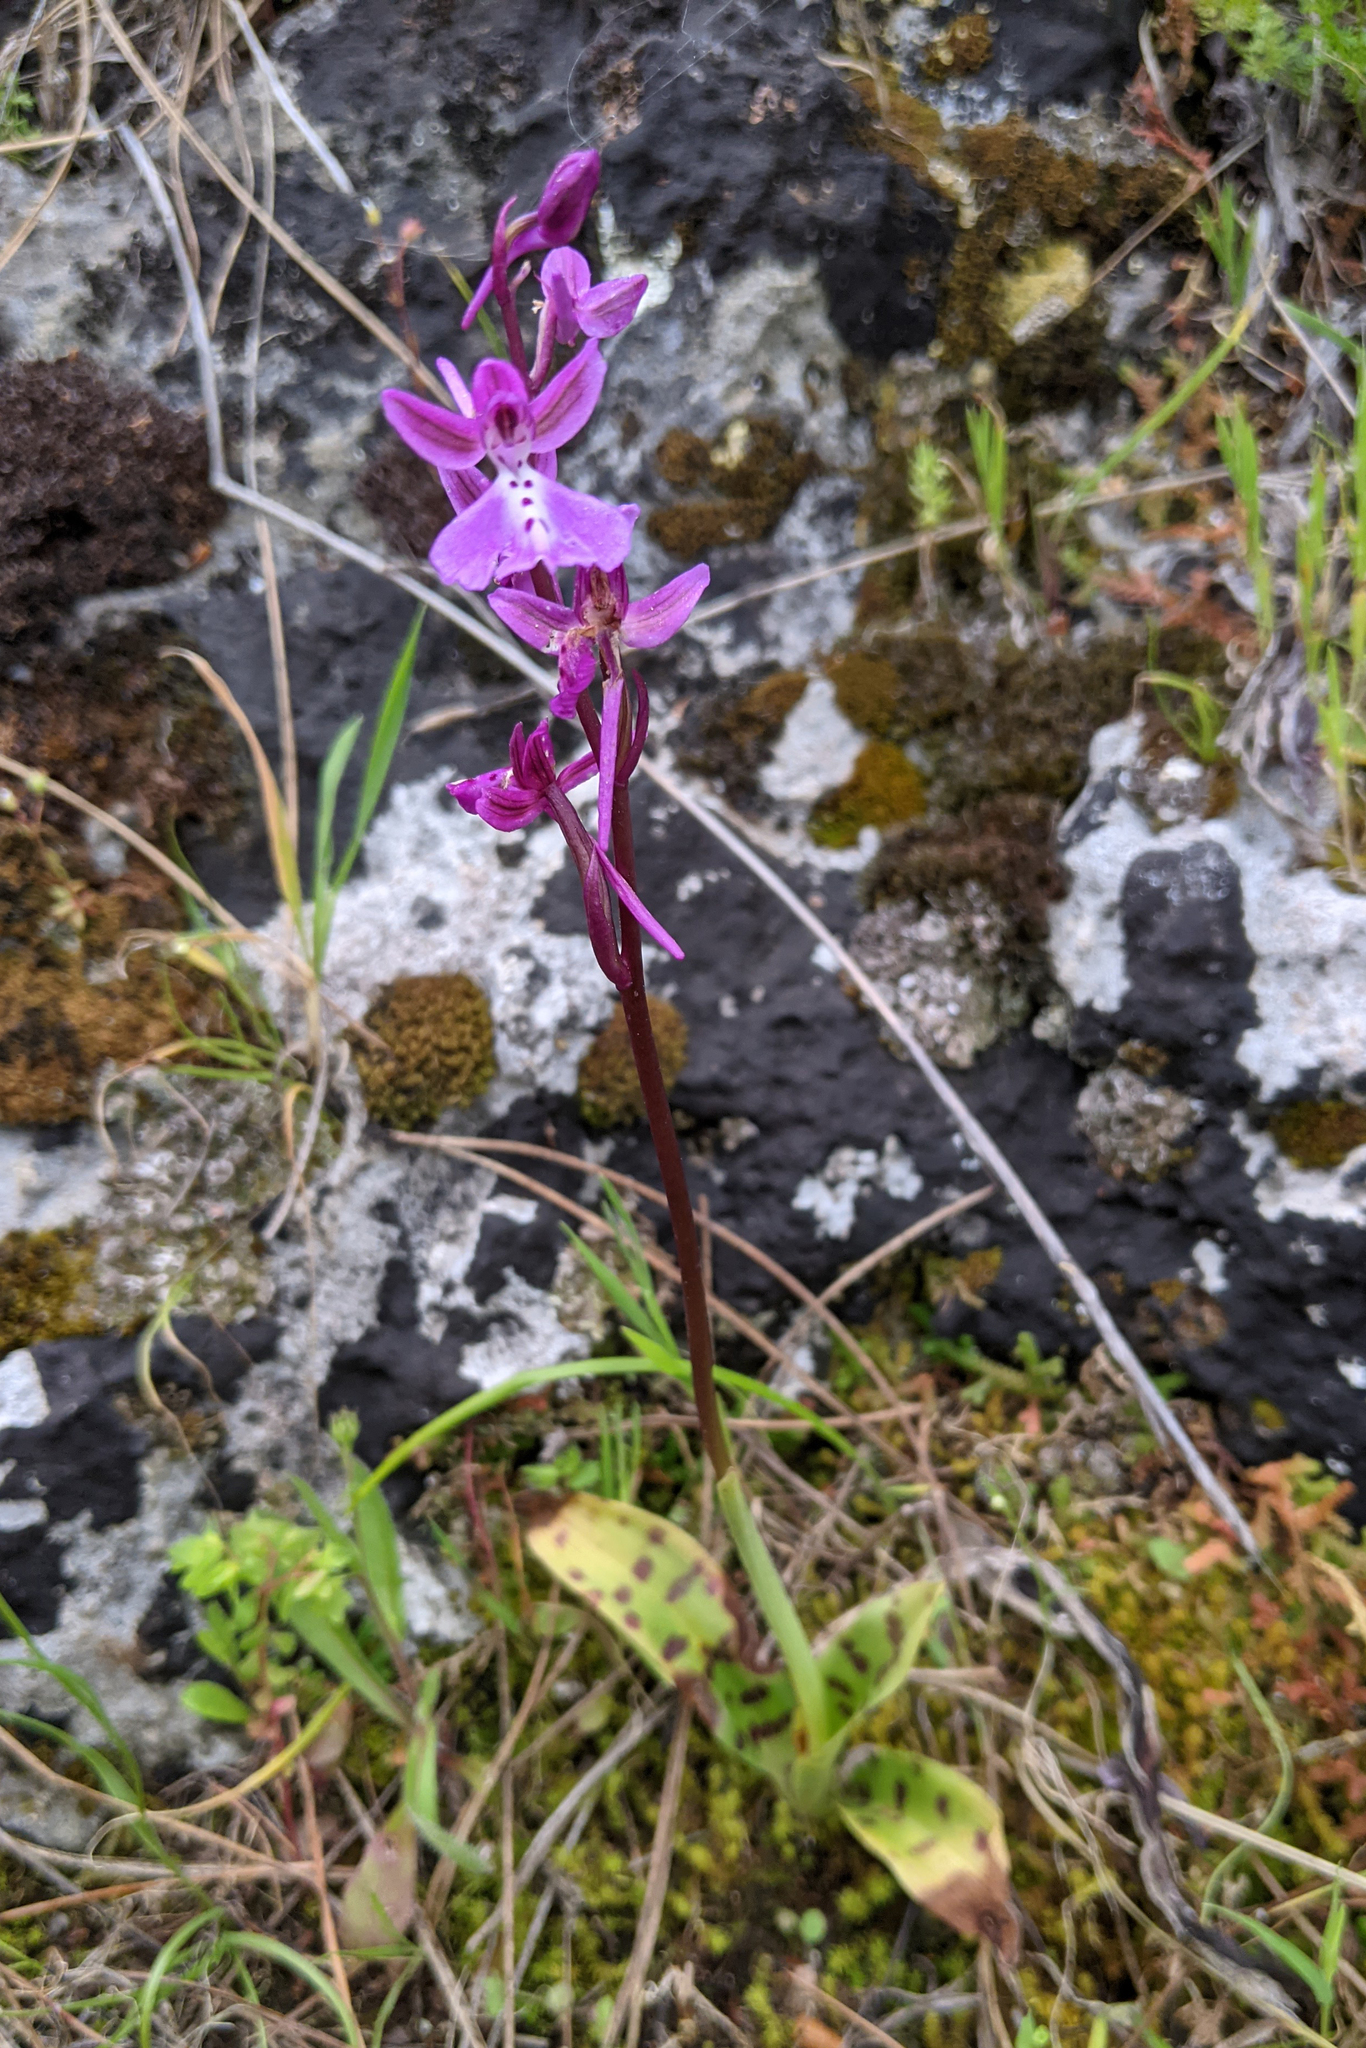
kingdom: Plantae
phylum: Tracheophyta
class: Liliopsida
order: Asparagales
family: Orchidaceae
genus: Orchis
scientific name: Orchis anatolica
